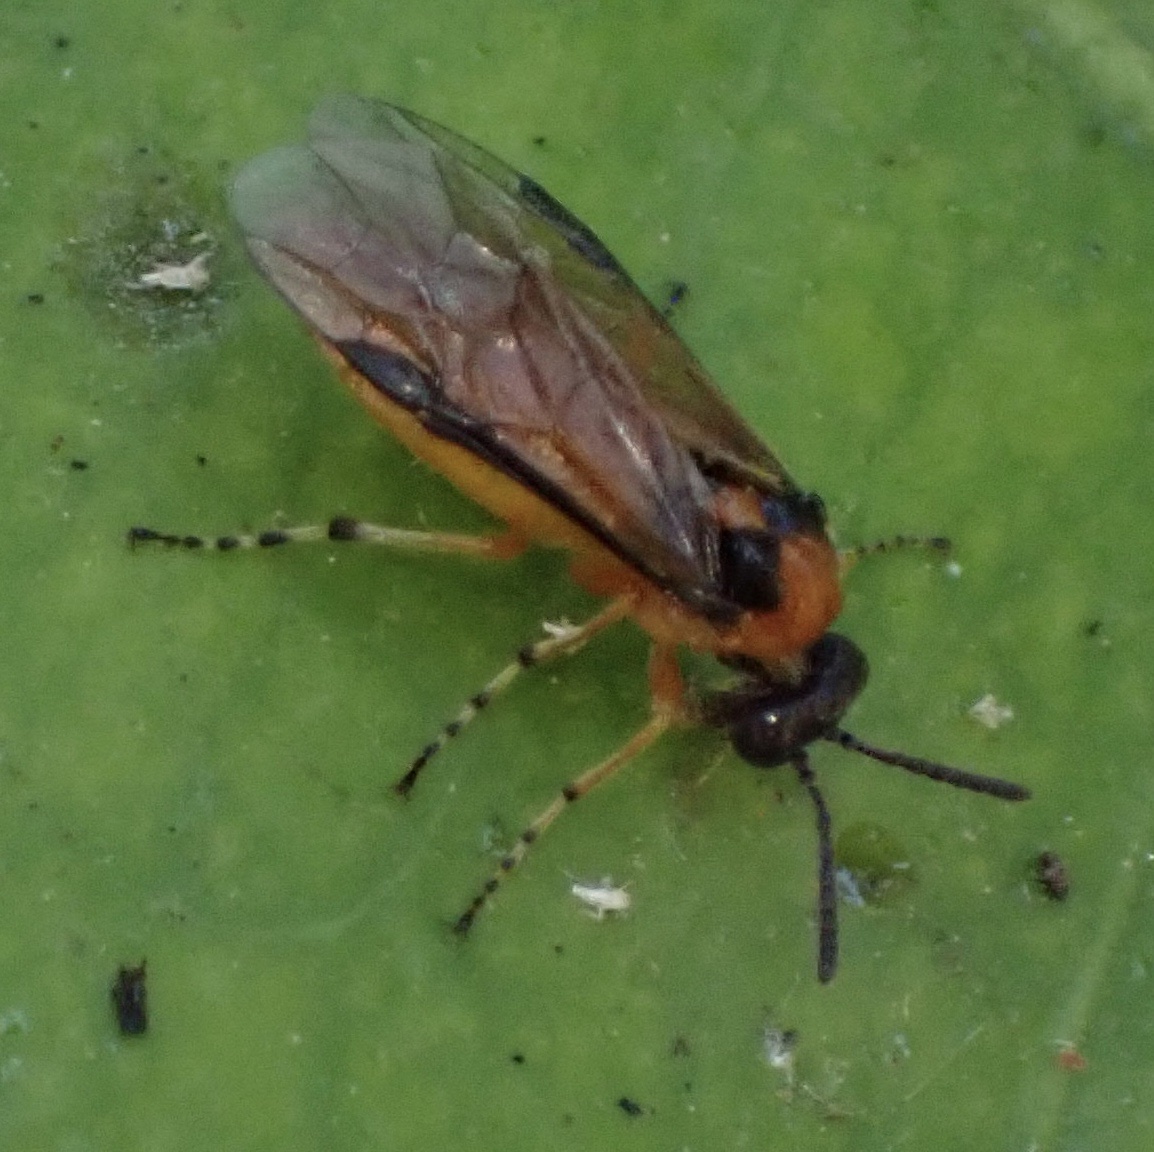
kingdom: Animalia
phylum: Arthropoda
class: Insecta
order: Hymenoptera
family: Tenthredinidae
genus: Athalia
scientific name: Athalia rosae
